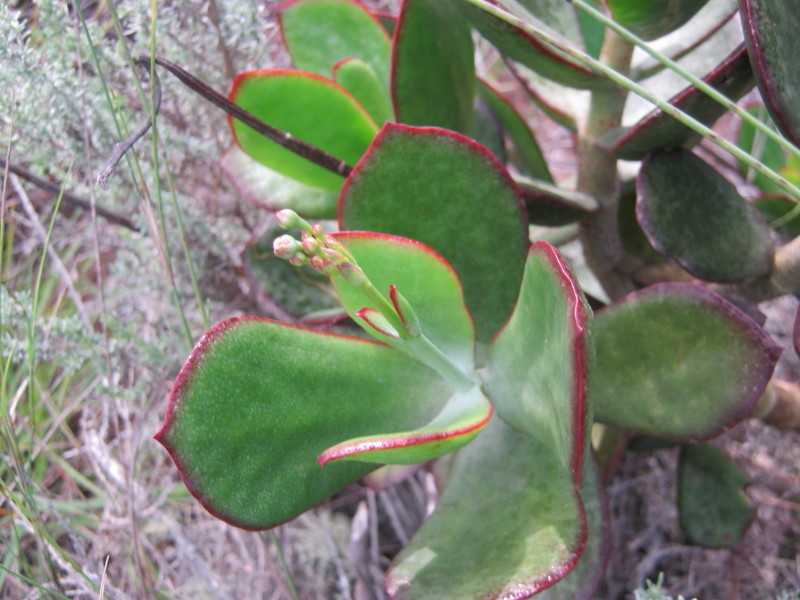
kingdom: Plantae
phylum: Tracheophyta
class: Magnoliopsida
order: Saxifragales
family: Crassulaceae
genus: Cotyledon
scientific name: Cotyledon orbiculata
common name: Pig's ear
